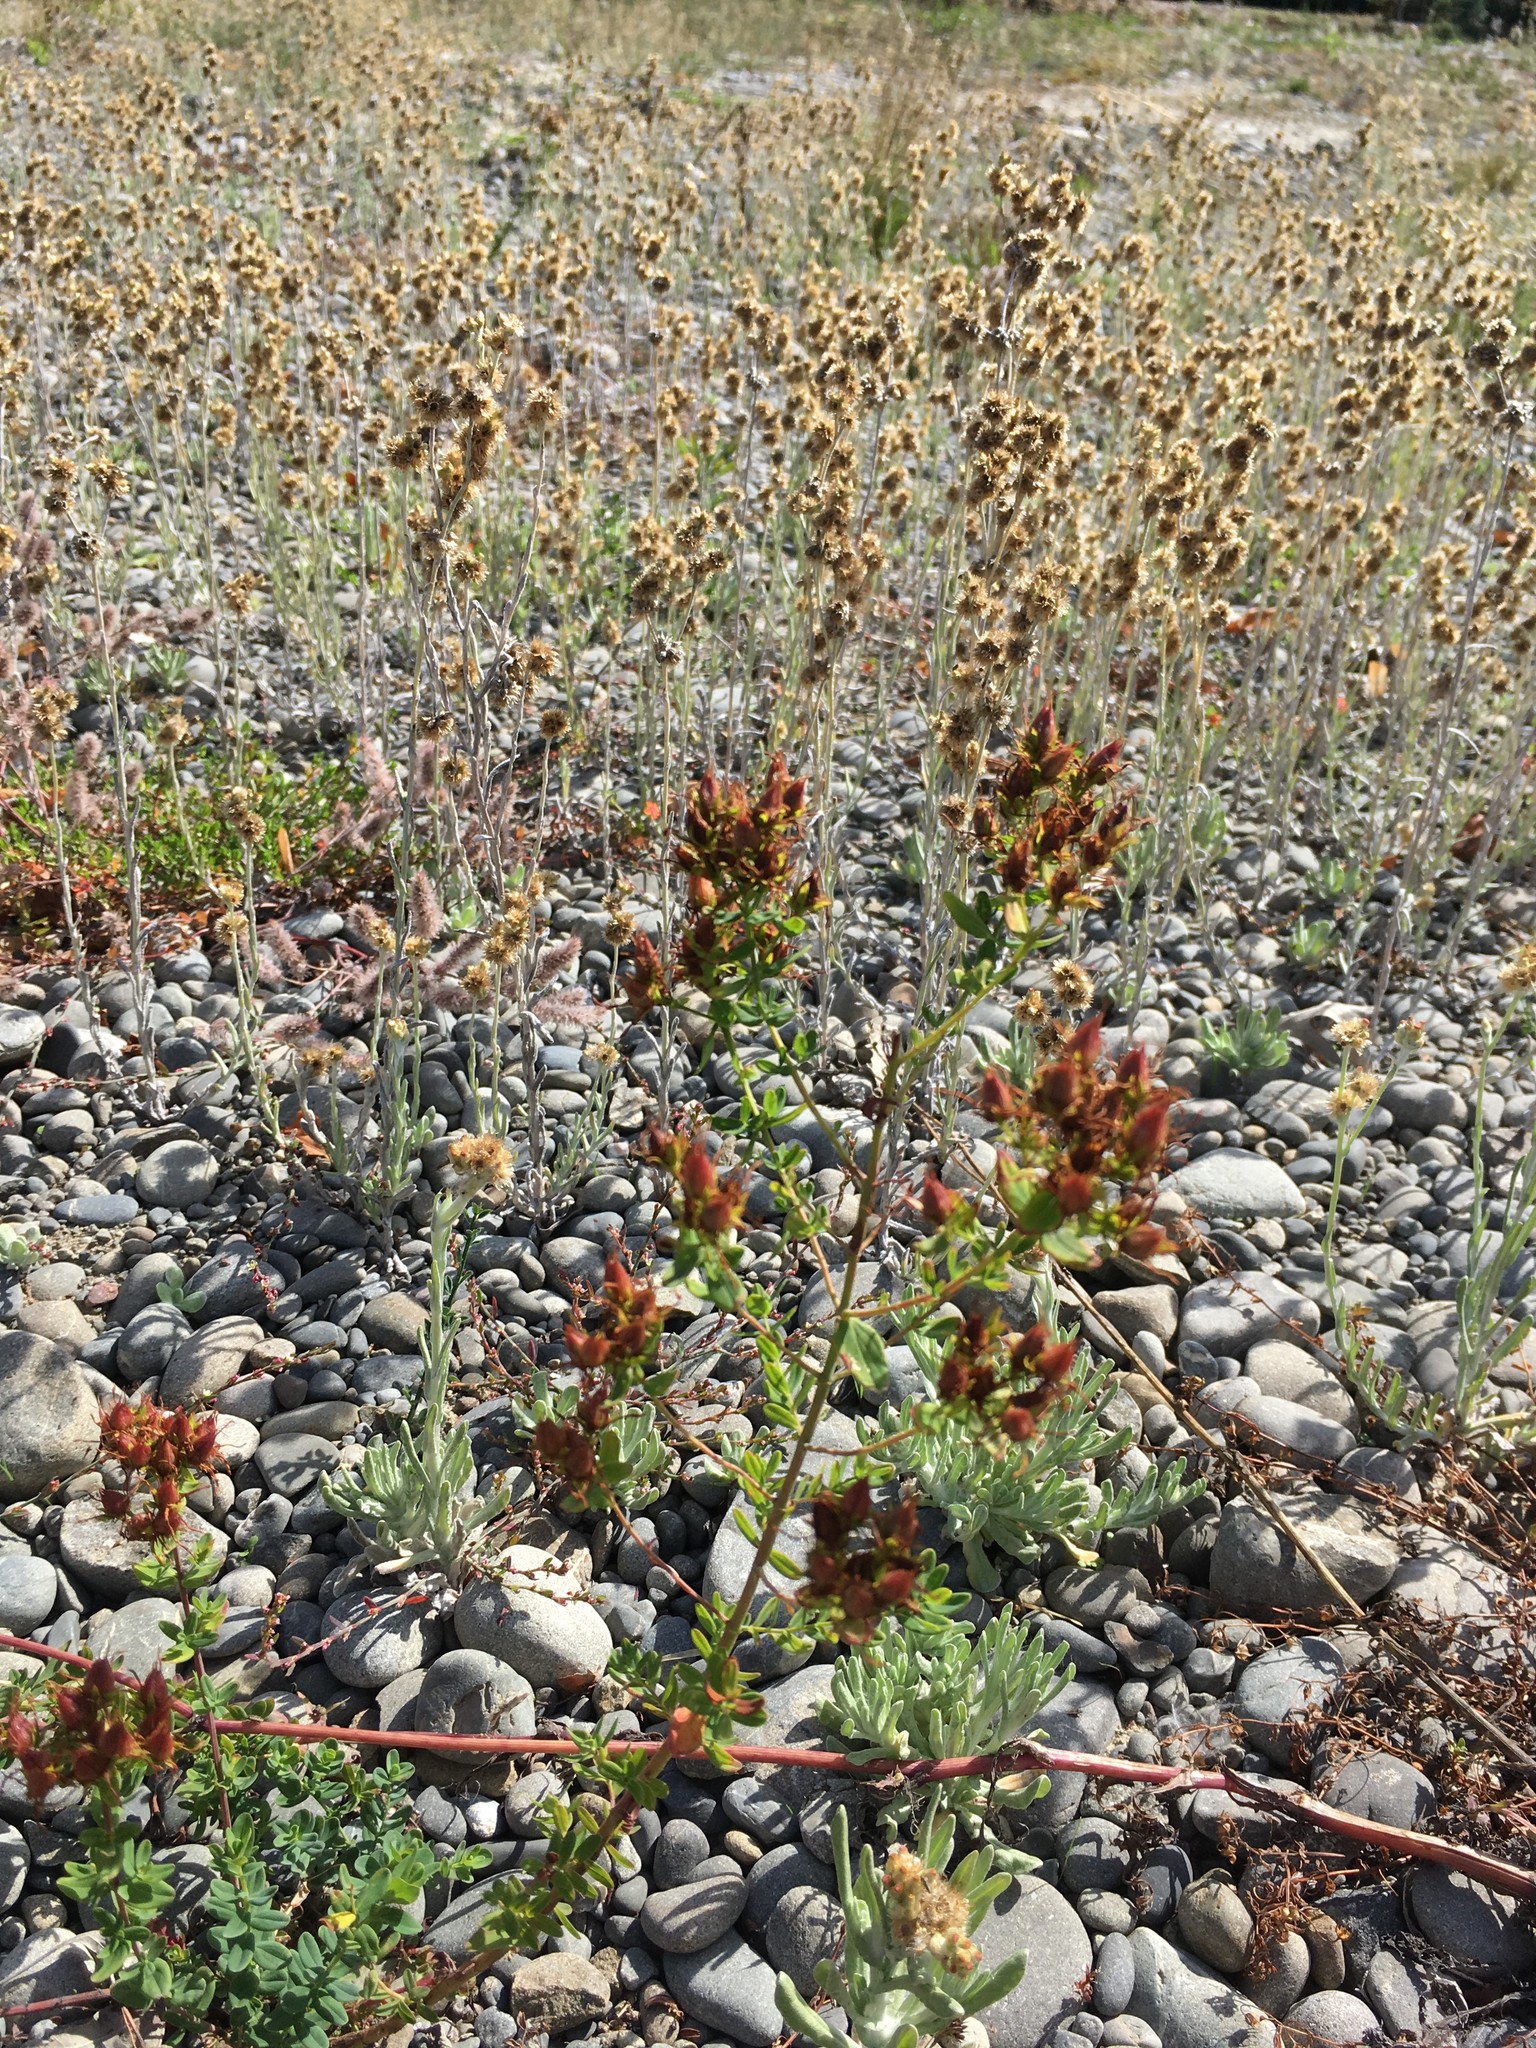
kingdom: Plantae
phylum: Tracheophyta
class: Magnoliopsida
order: Malpighiales
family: Hypericaceae
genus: Hypericum
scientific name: Hypericum perforatum
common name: Common st. johnswort
